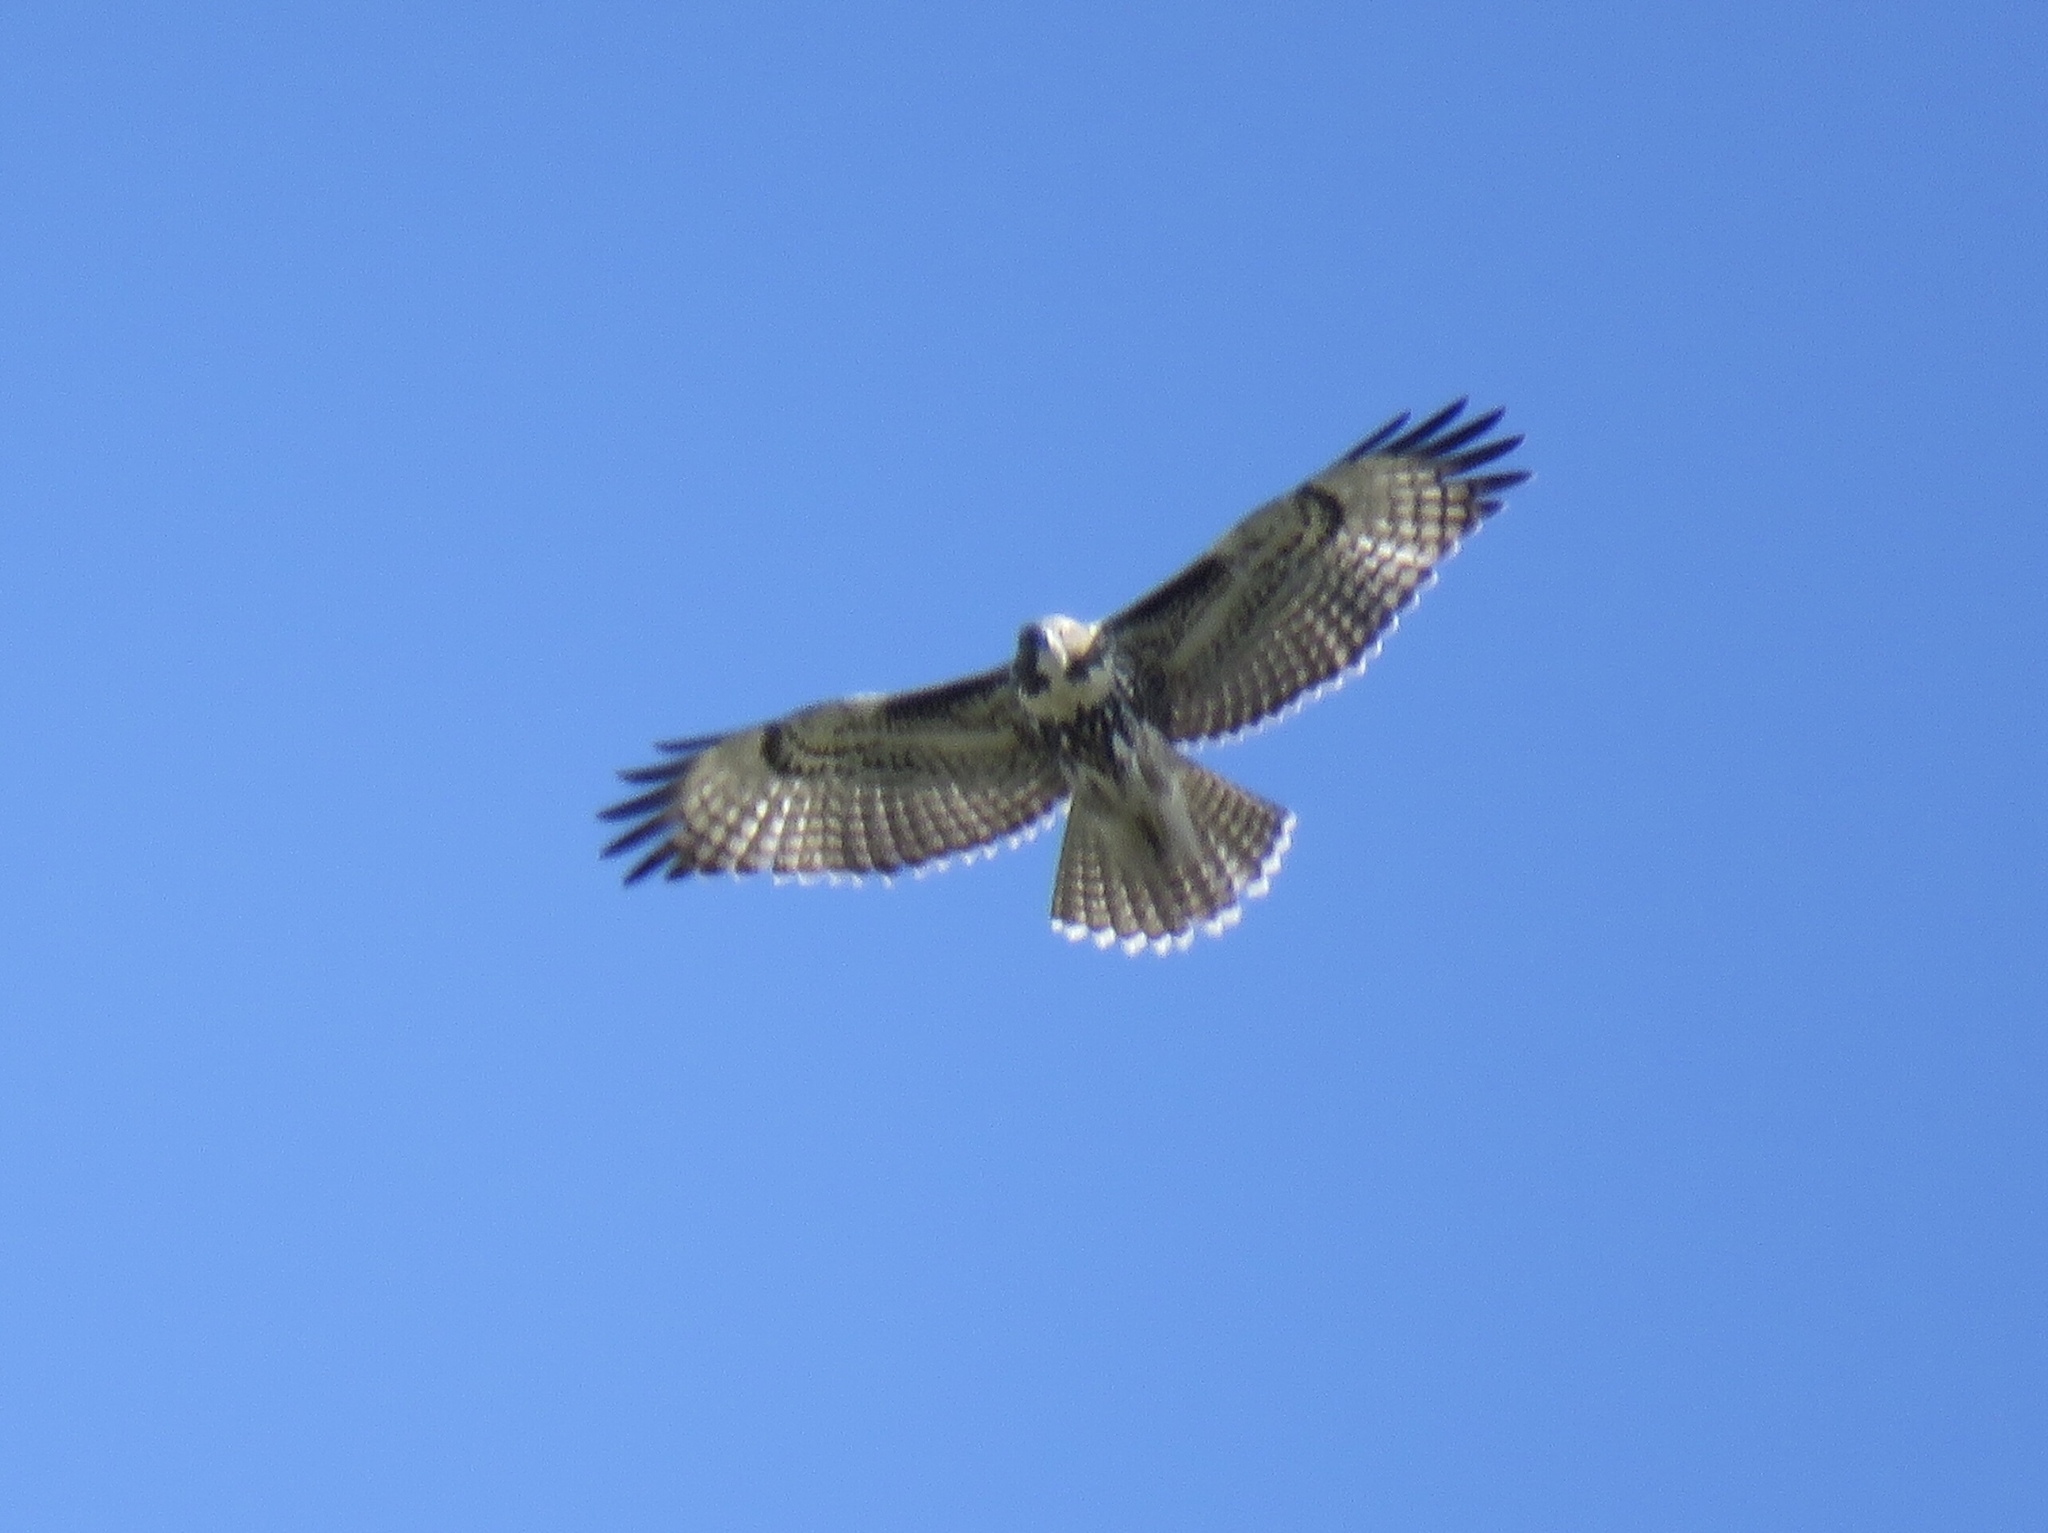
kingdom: Animalia
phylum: Chordata
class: Aves
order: Accipitriformes
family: Accipitridae
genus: Buteo
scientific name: Buteo jamaicensis
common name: Red-tailed hawk
